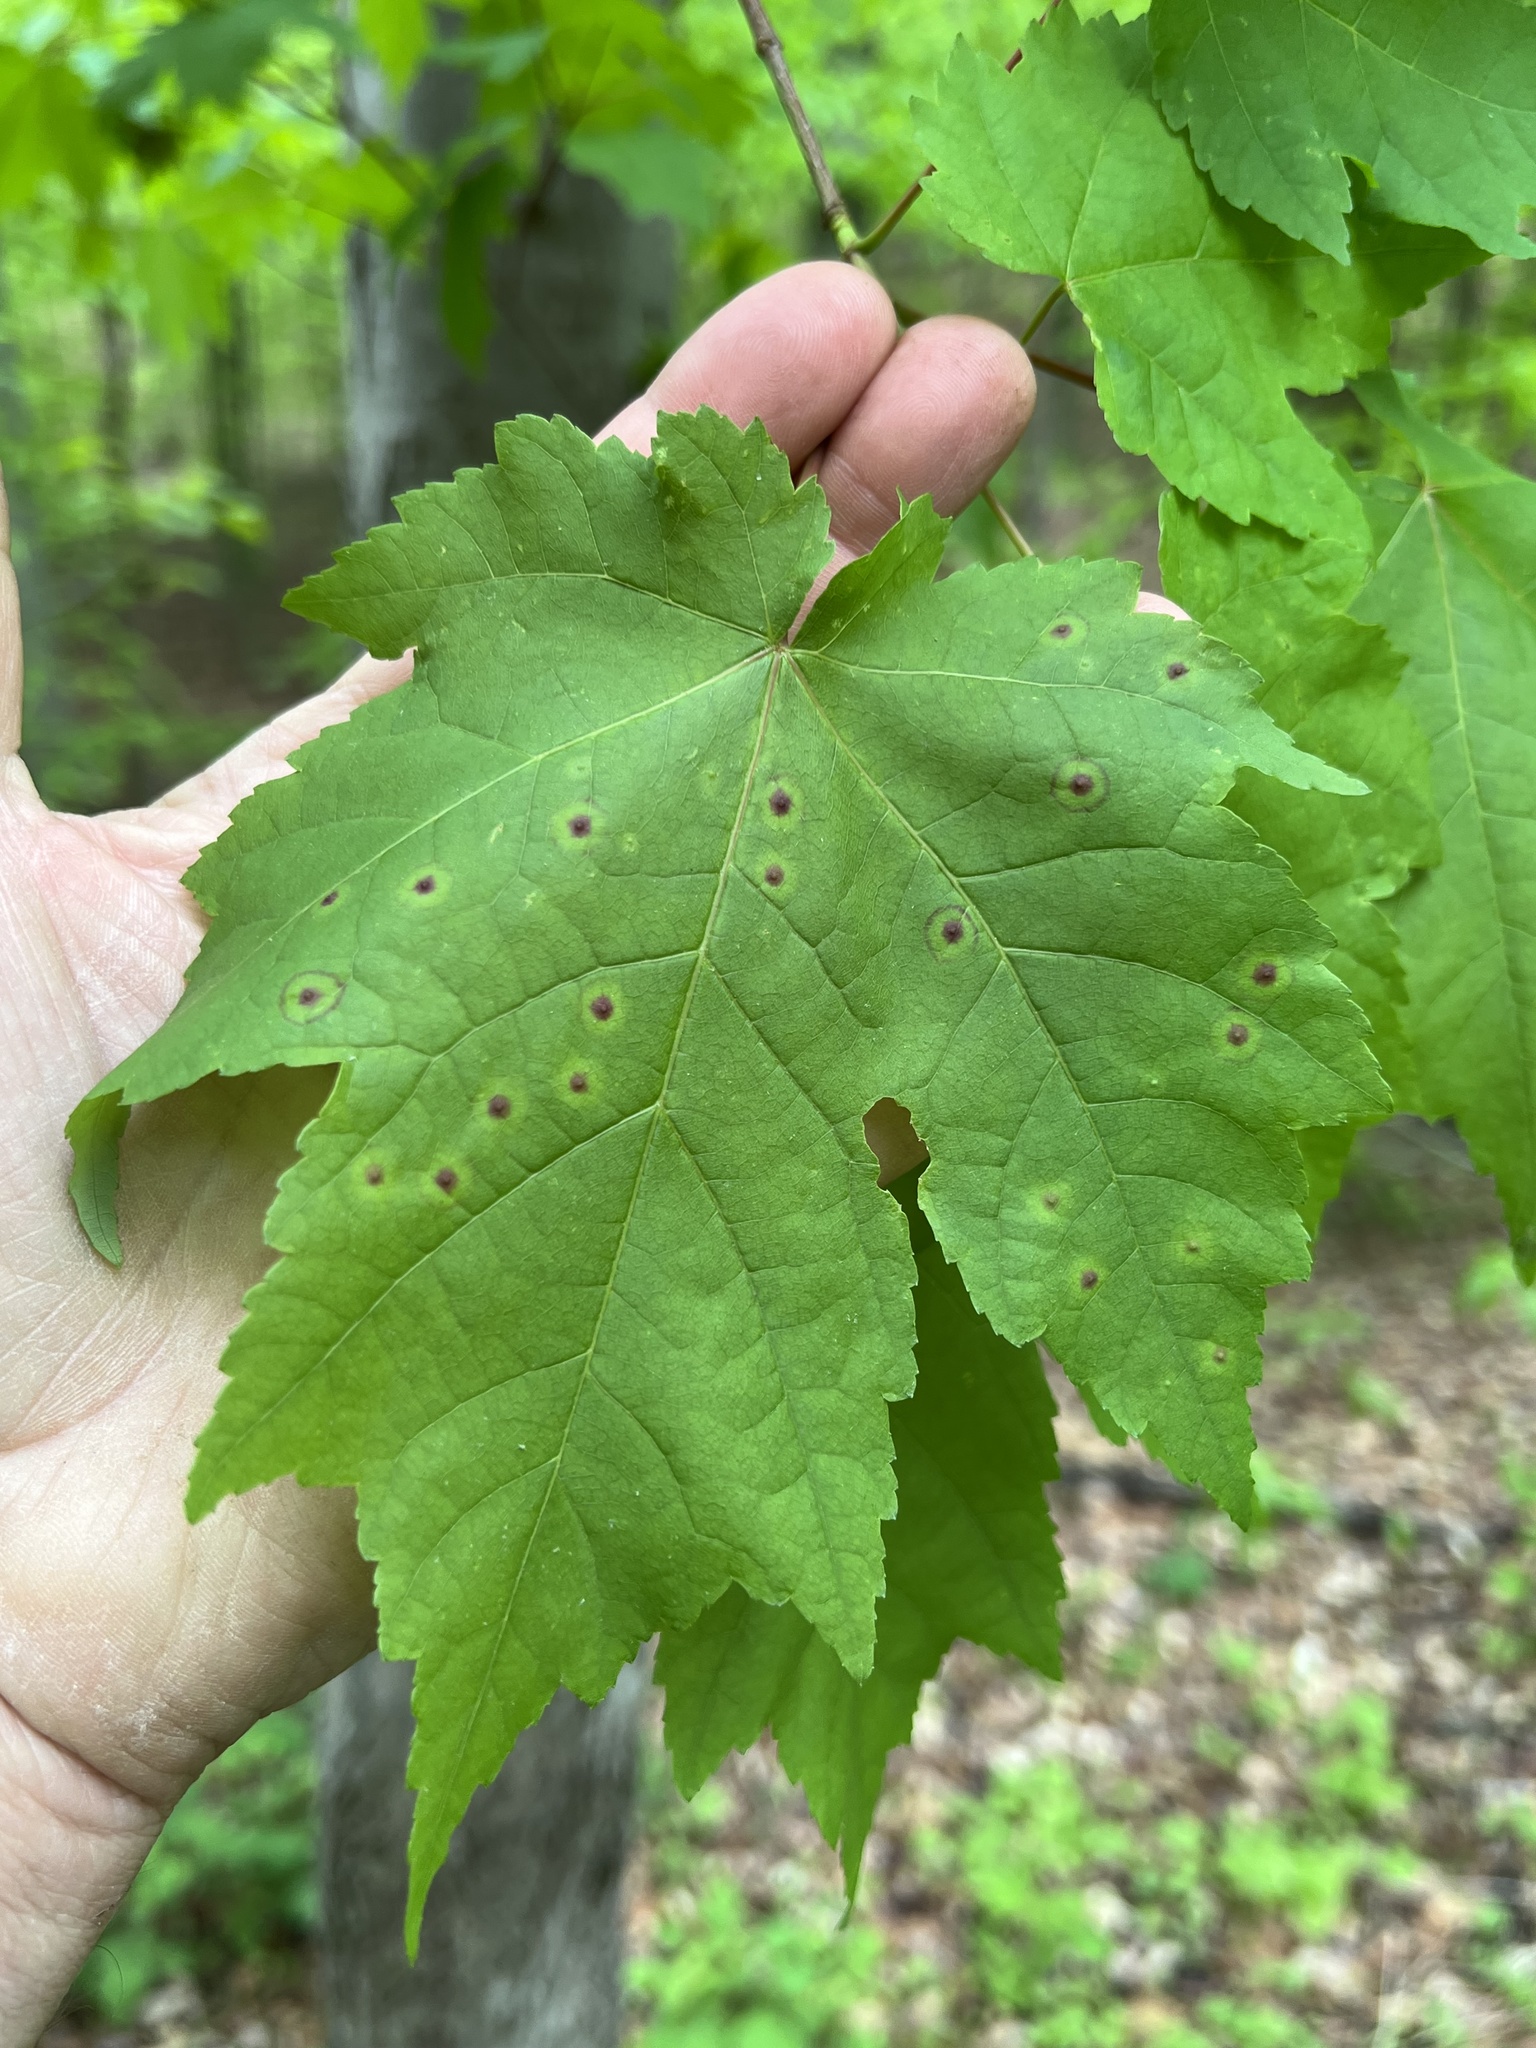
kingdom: Animalia
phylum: Arthropoda
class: Insecta
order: Diptera
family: Cecidomyiidae
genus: Acericecis
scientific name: Acericecis ocellaris
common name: Ocellate gall midge
